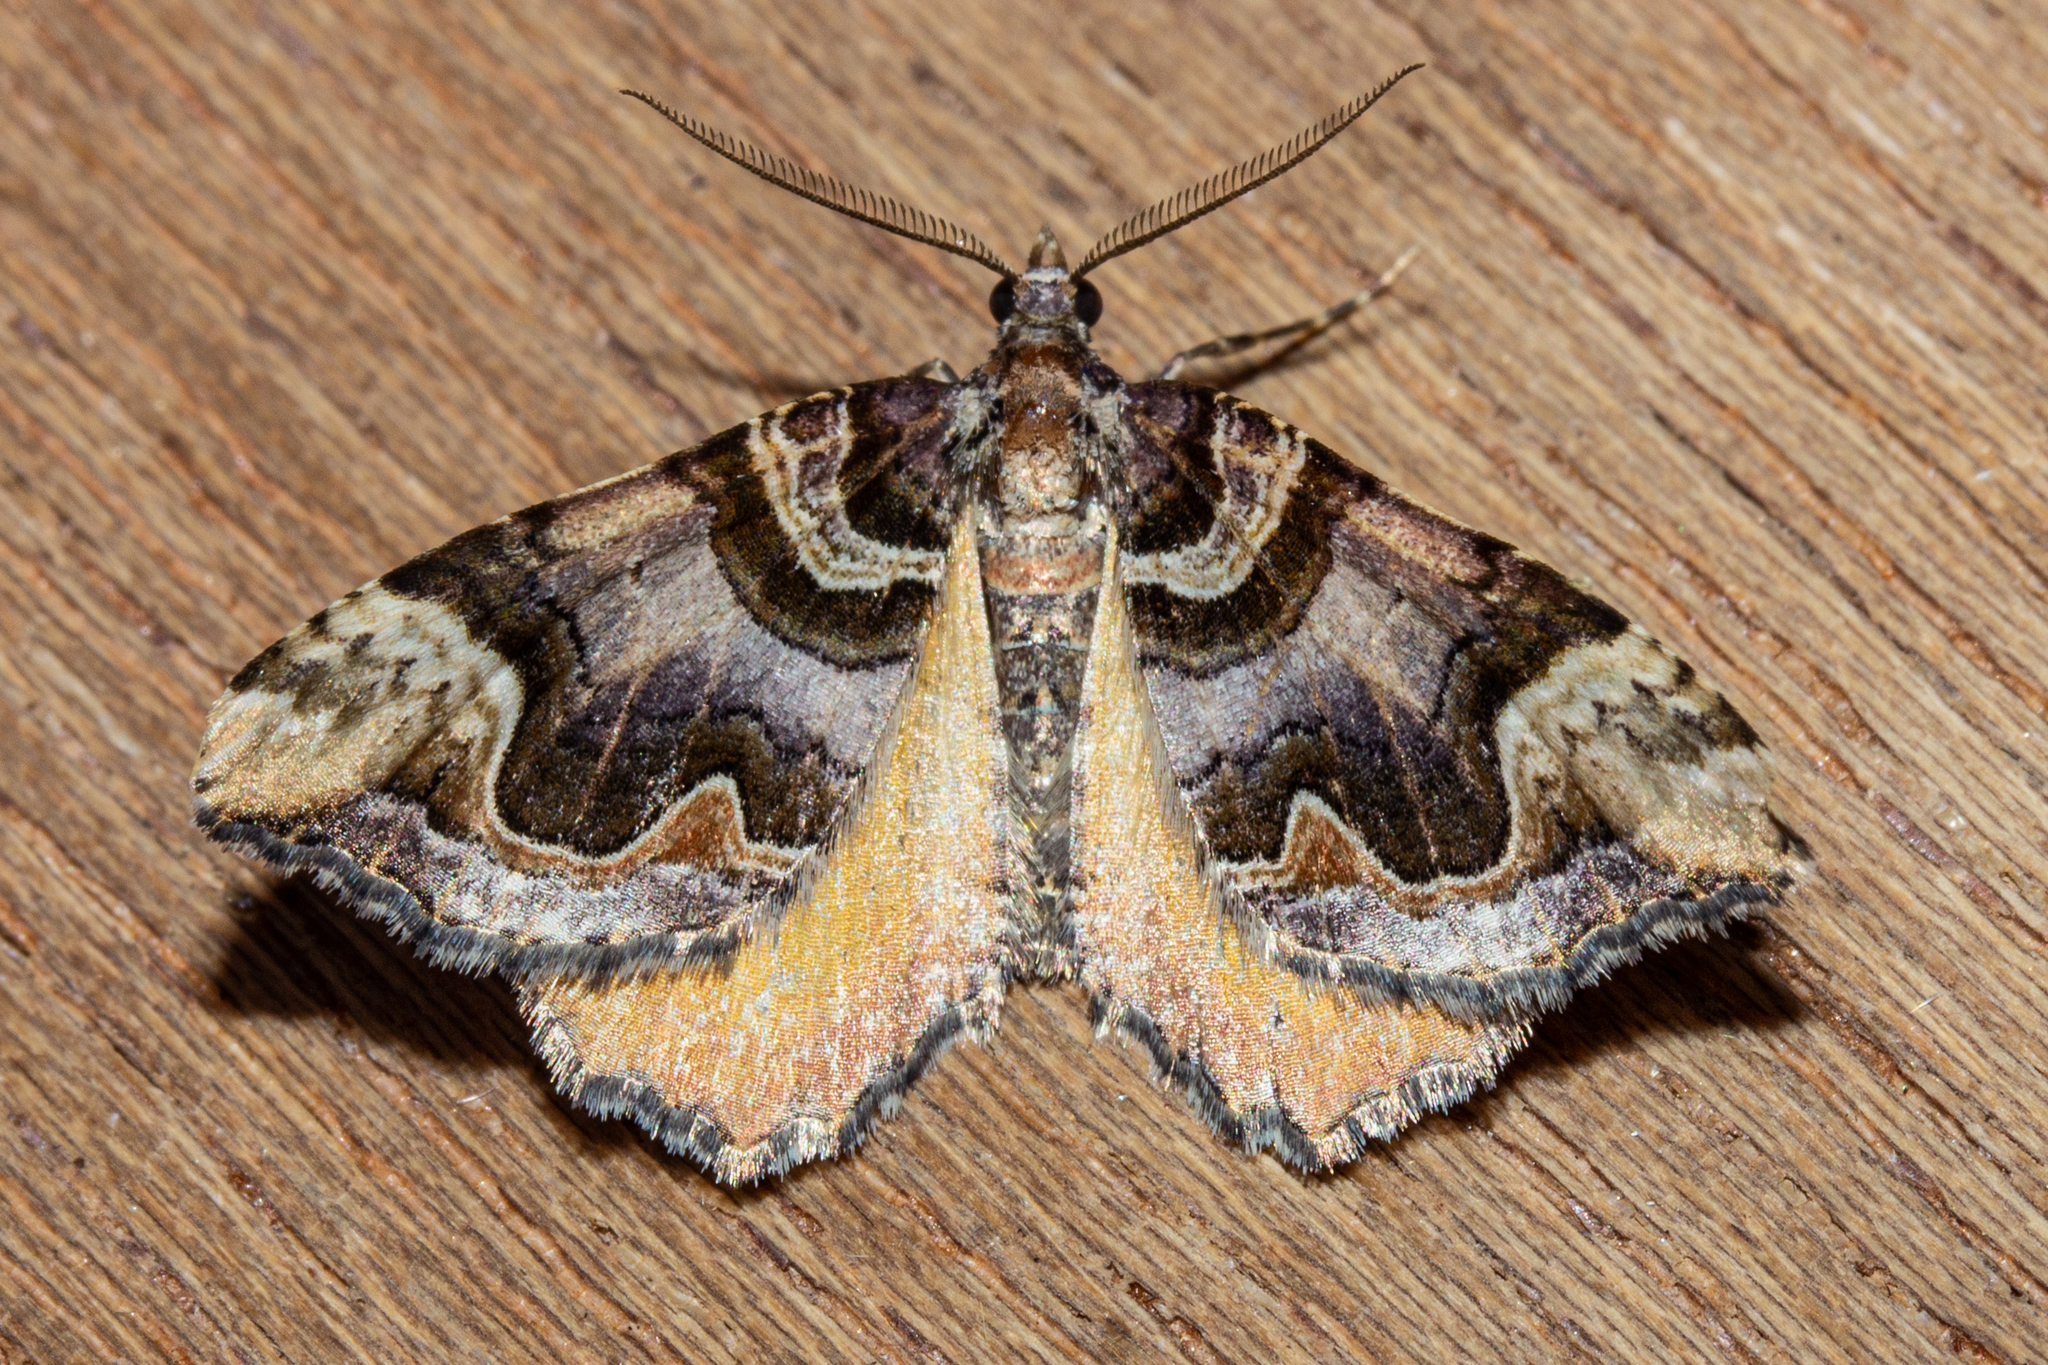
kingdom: Animalia
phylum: Arthropoda
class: Insecta
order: Lepidoptera
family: Geometridae
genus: Asaphodes
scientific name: Asaphodes chlamydota
